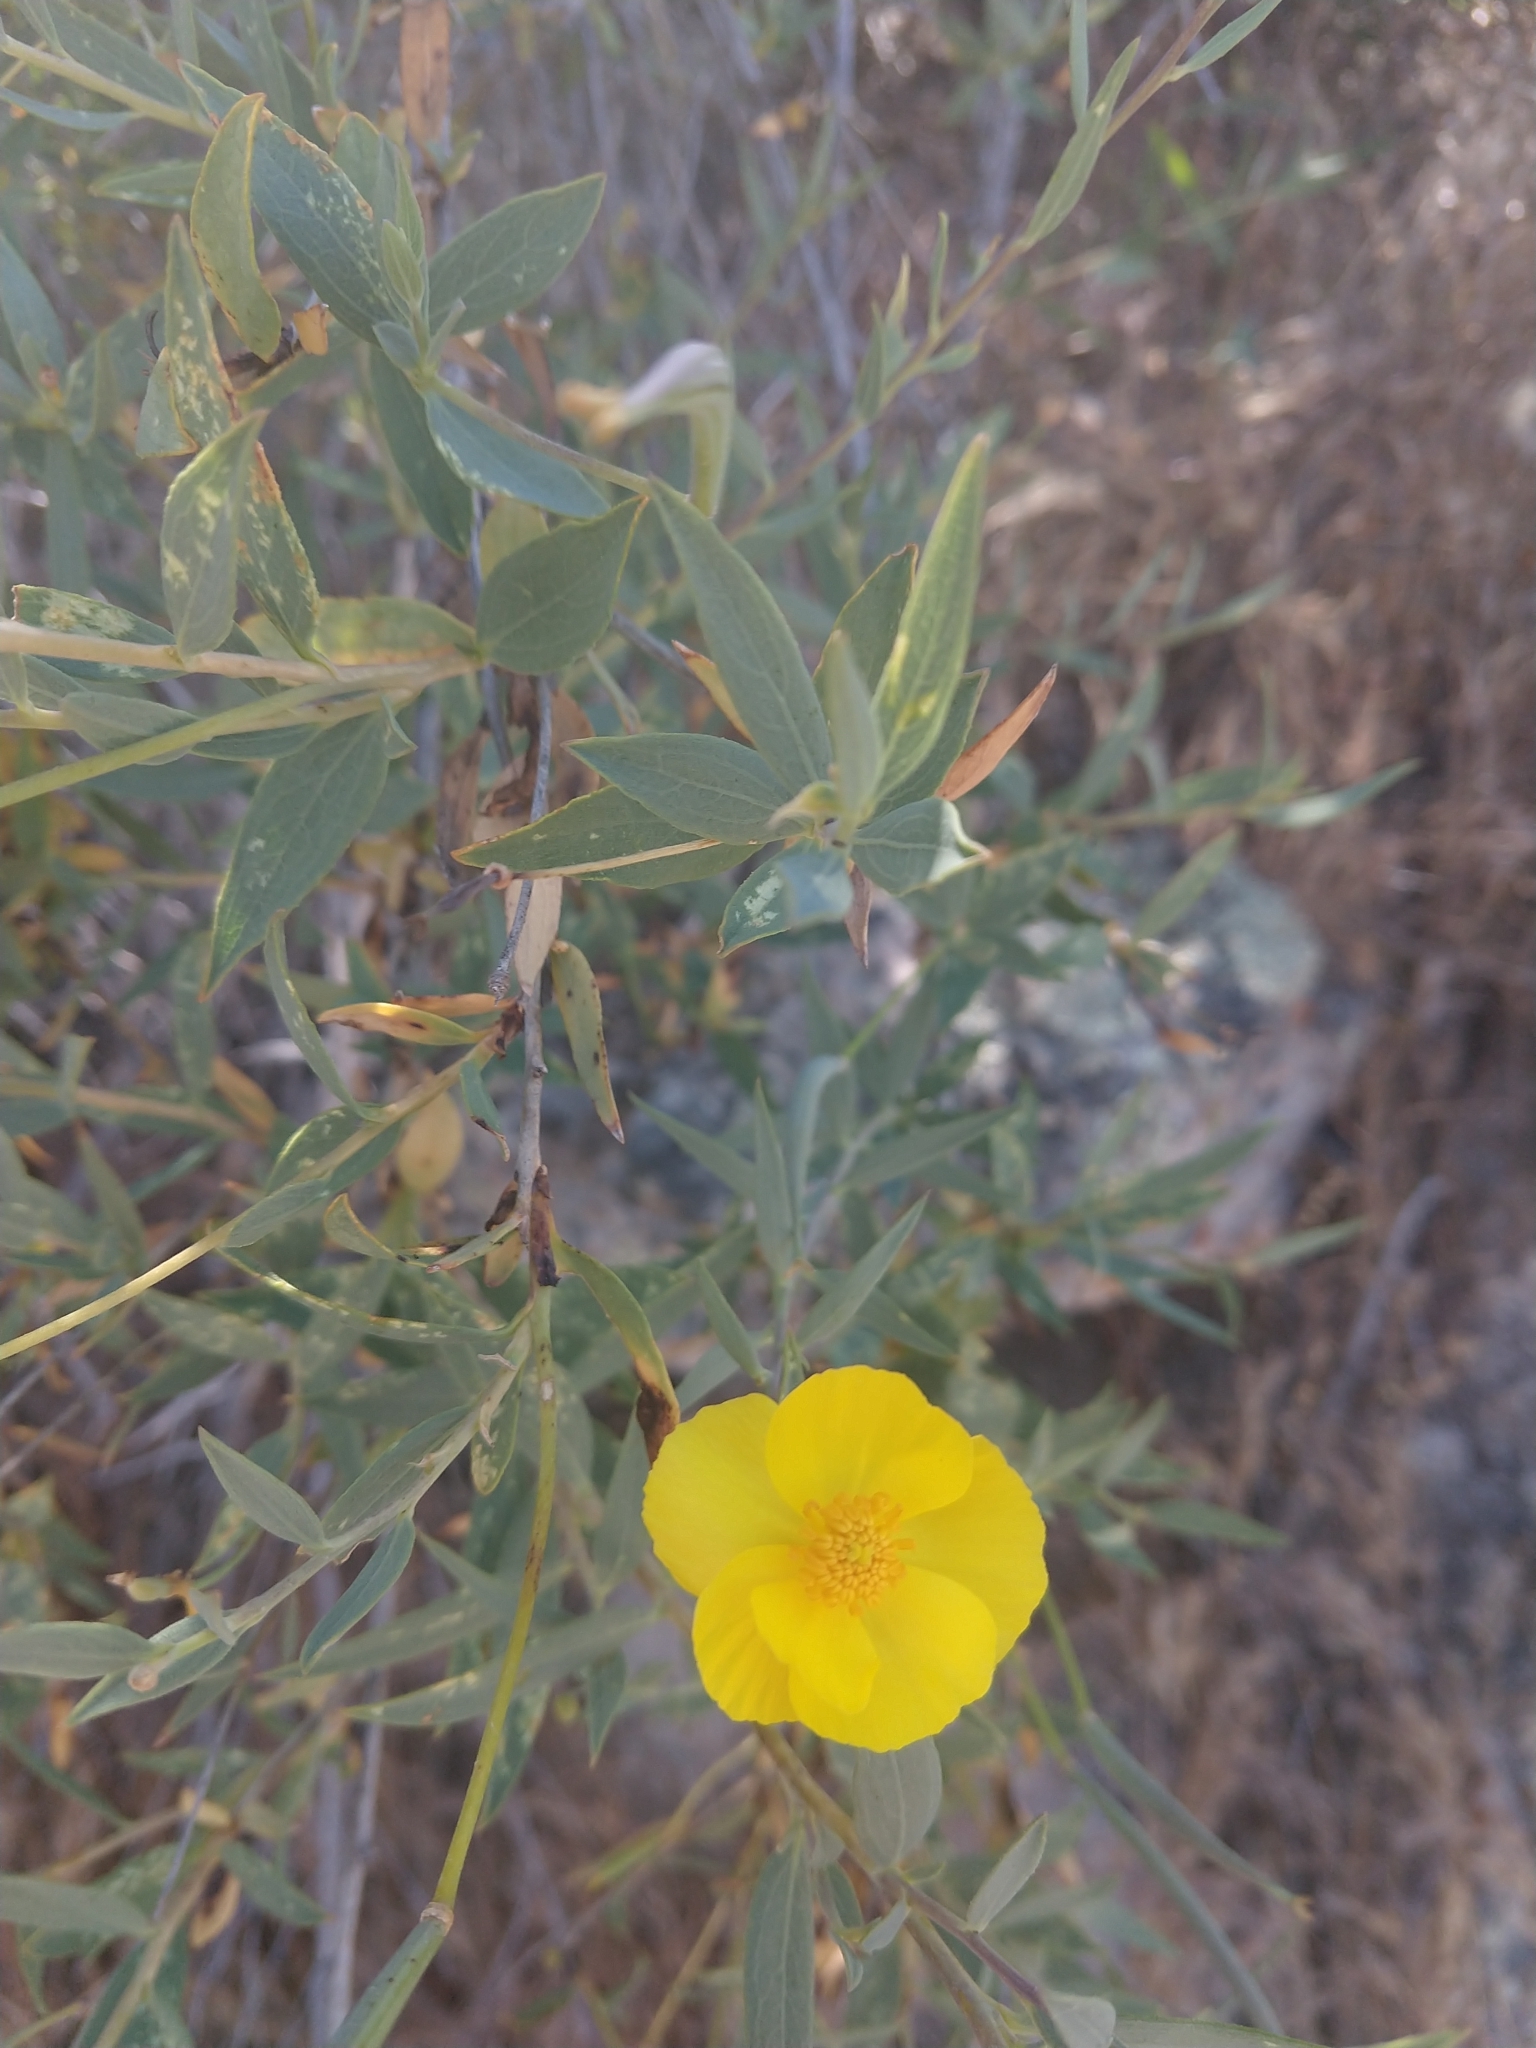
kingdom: Plantae
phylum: Tracheophyta
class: Magnoliopsida
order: Ranunculales
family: Papaveraceae
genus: Dendromecon
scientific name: Dendromecon rigida
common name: Tree poppy
